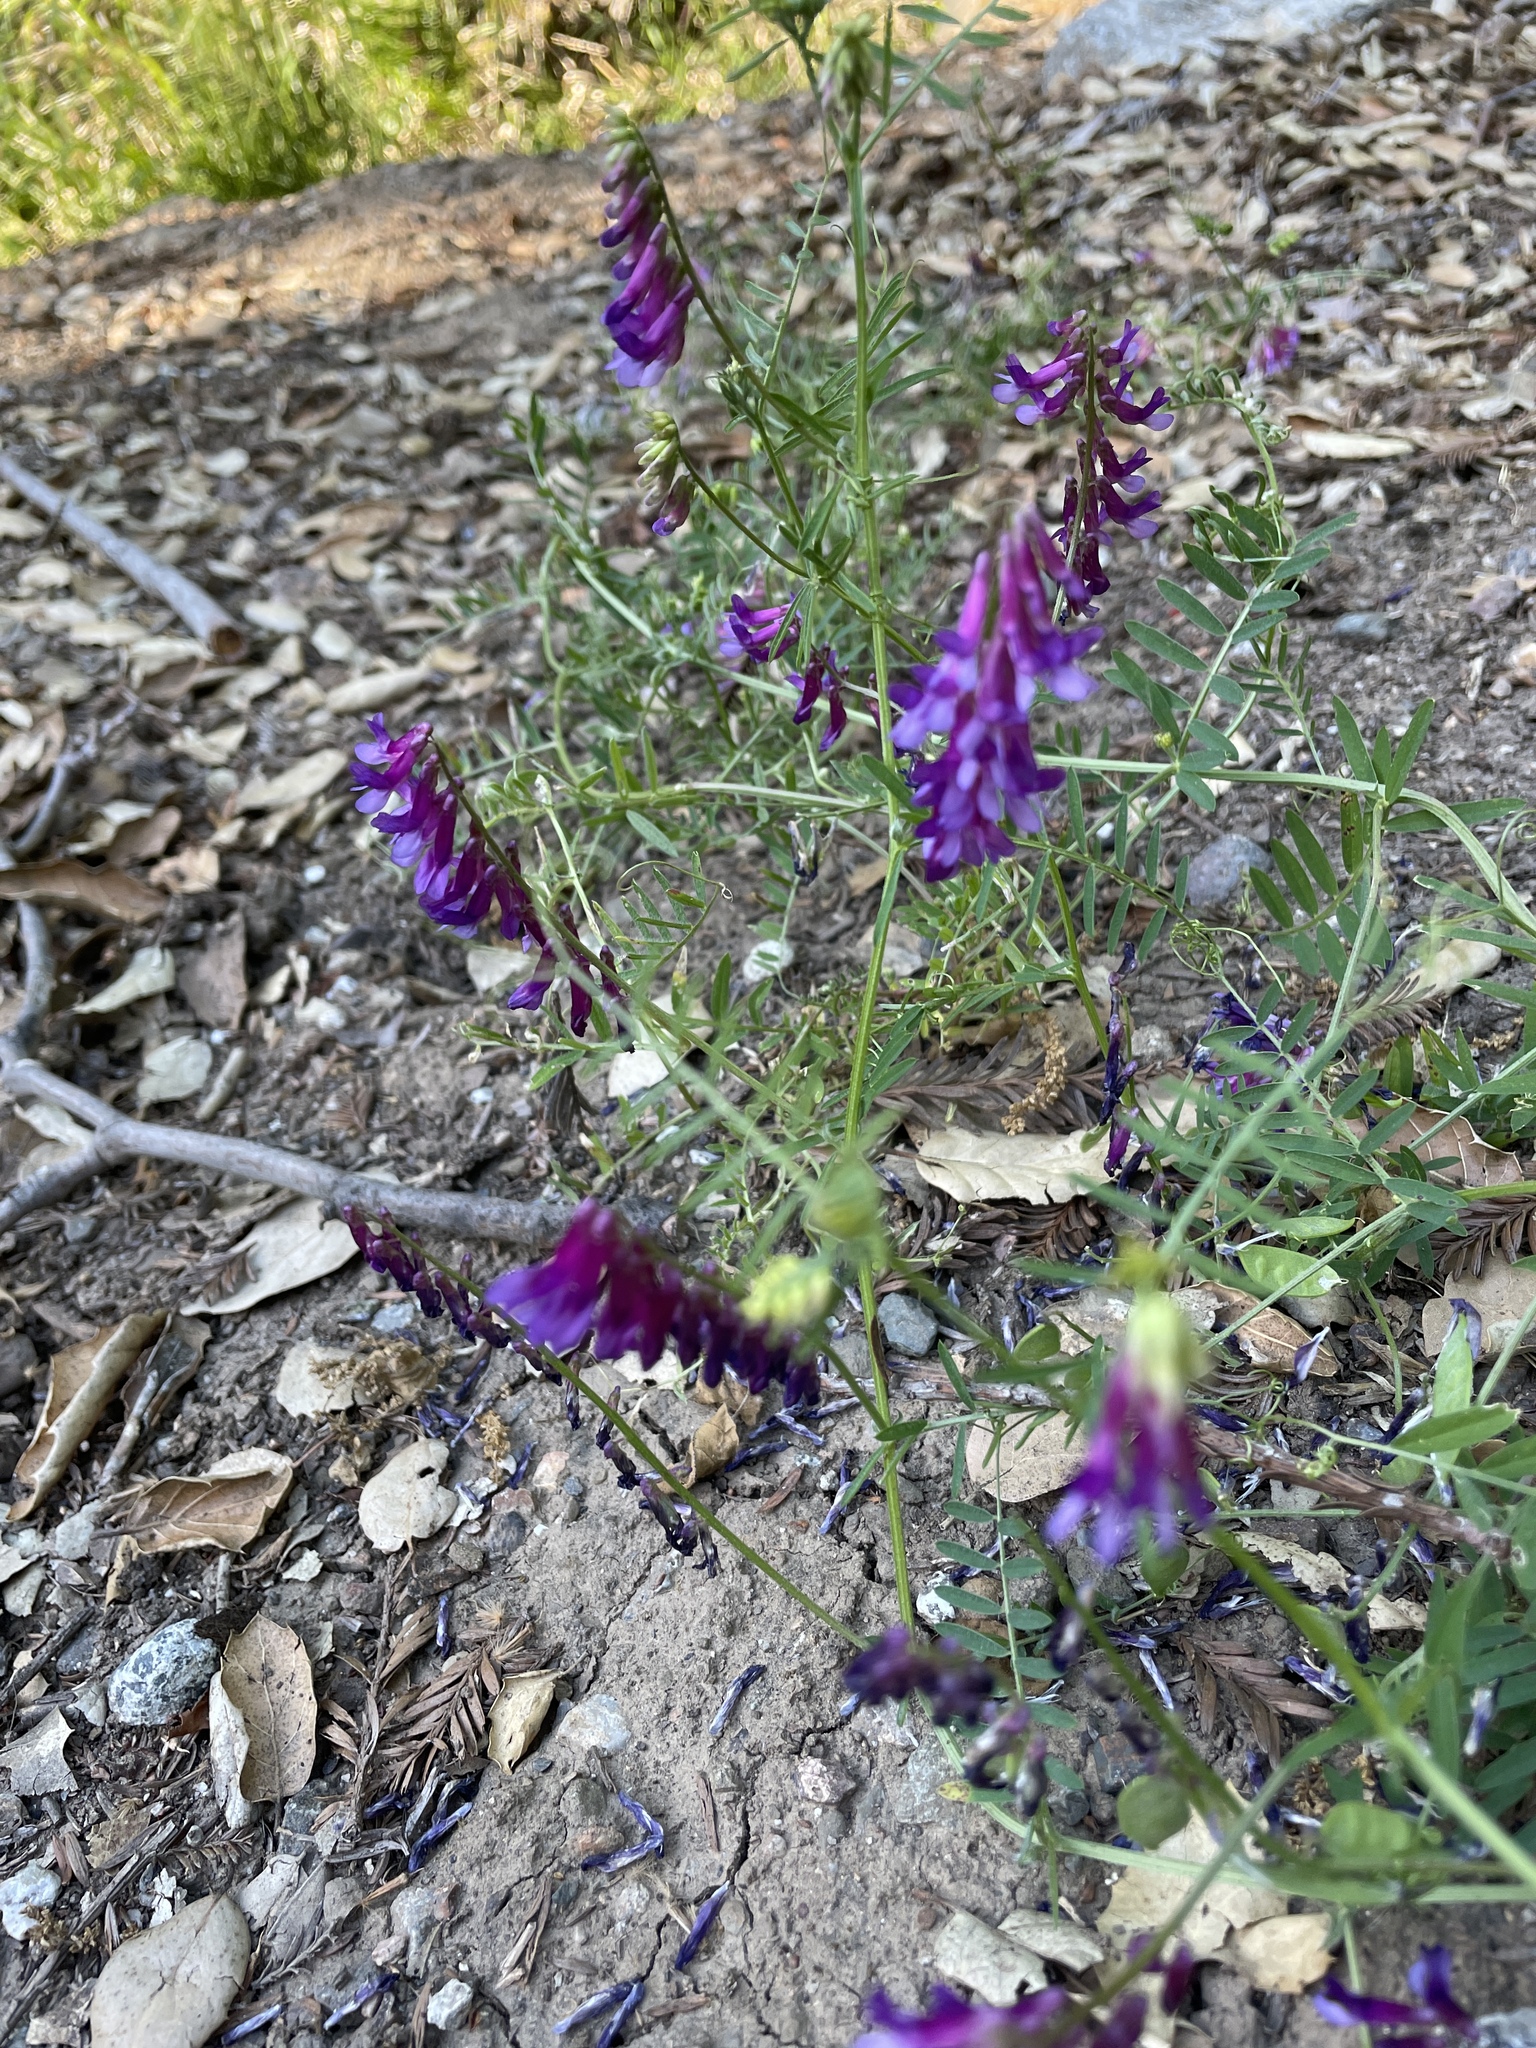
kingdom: Plantae
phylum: Tracheophyta
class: Magnoliopsida
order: Fabales
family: Fabaceae
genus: Vicia
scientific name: Vicia villosa
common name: Fodder vetch
